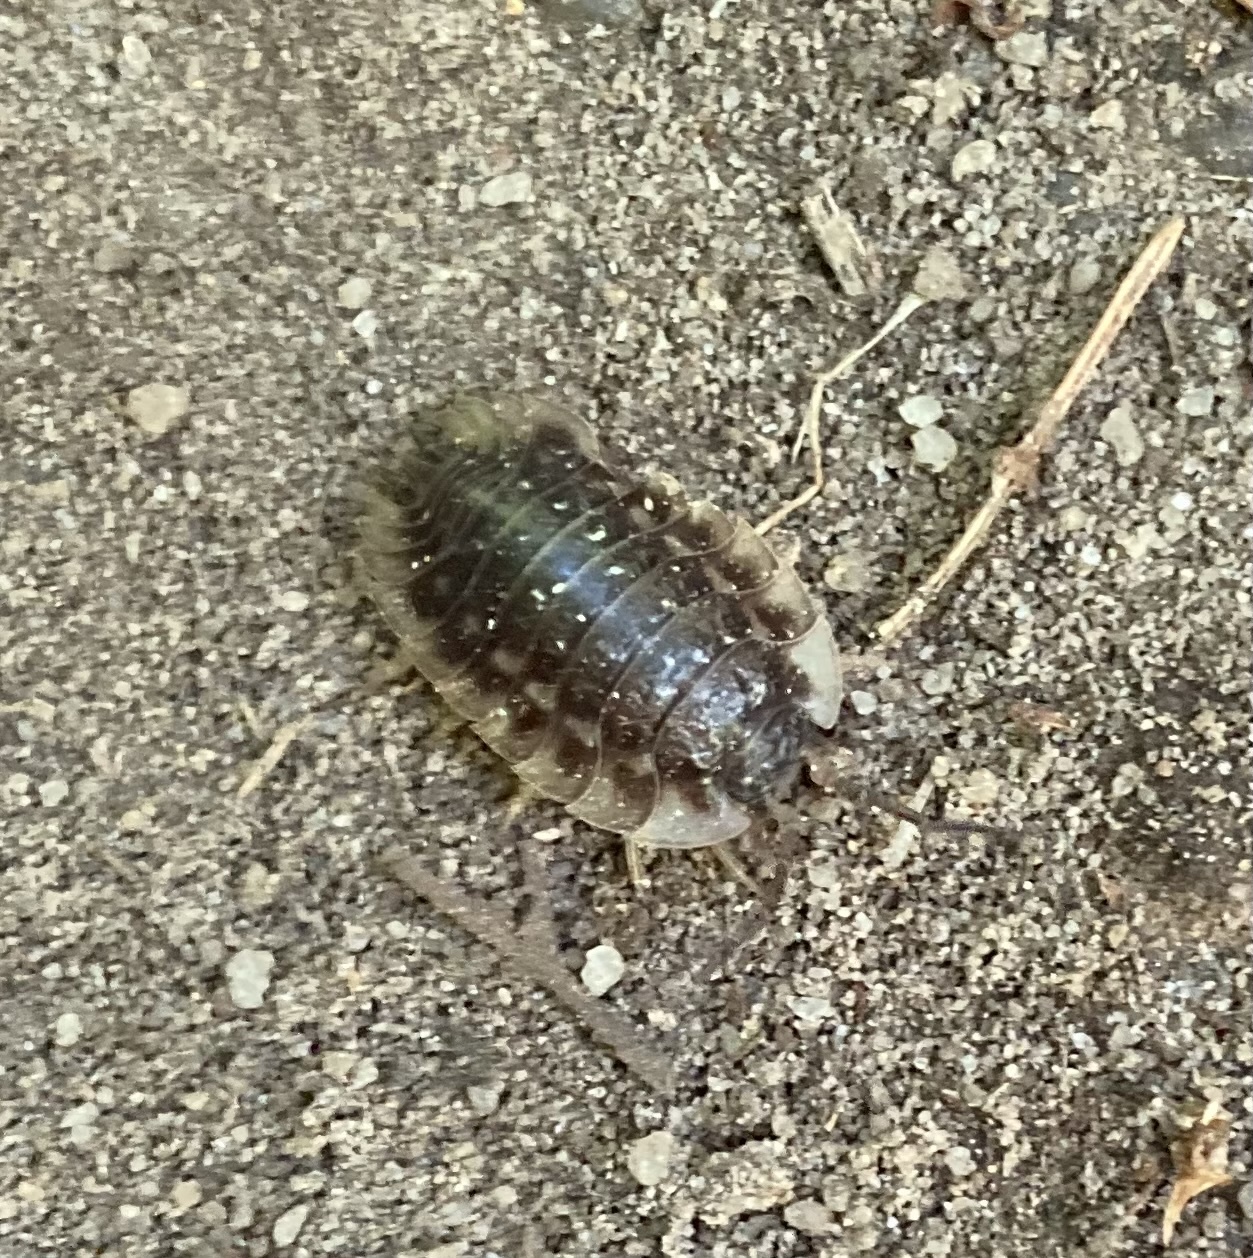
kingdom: Animalia
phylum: Arthropoda
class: Malacostraca
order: Isopoda
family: Oniscidae
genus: Oniscus
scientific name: Oniscus asellus
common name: Common shiny woodlouse
